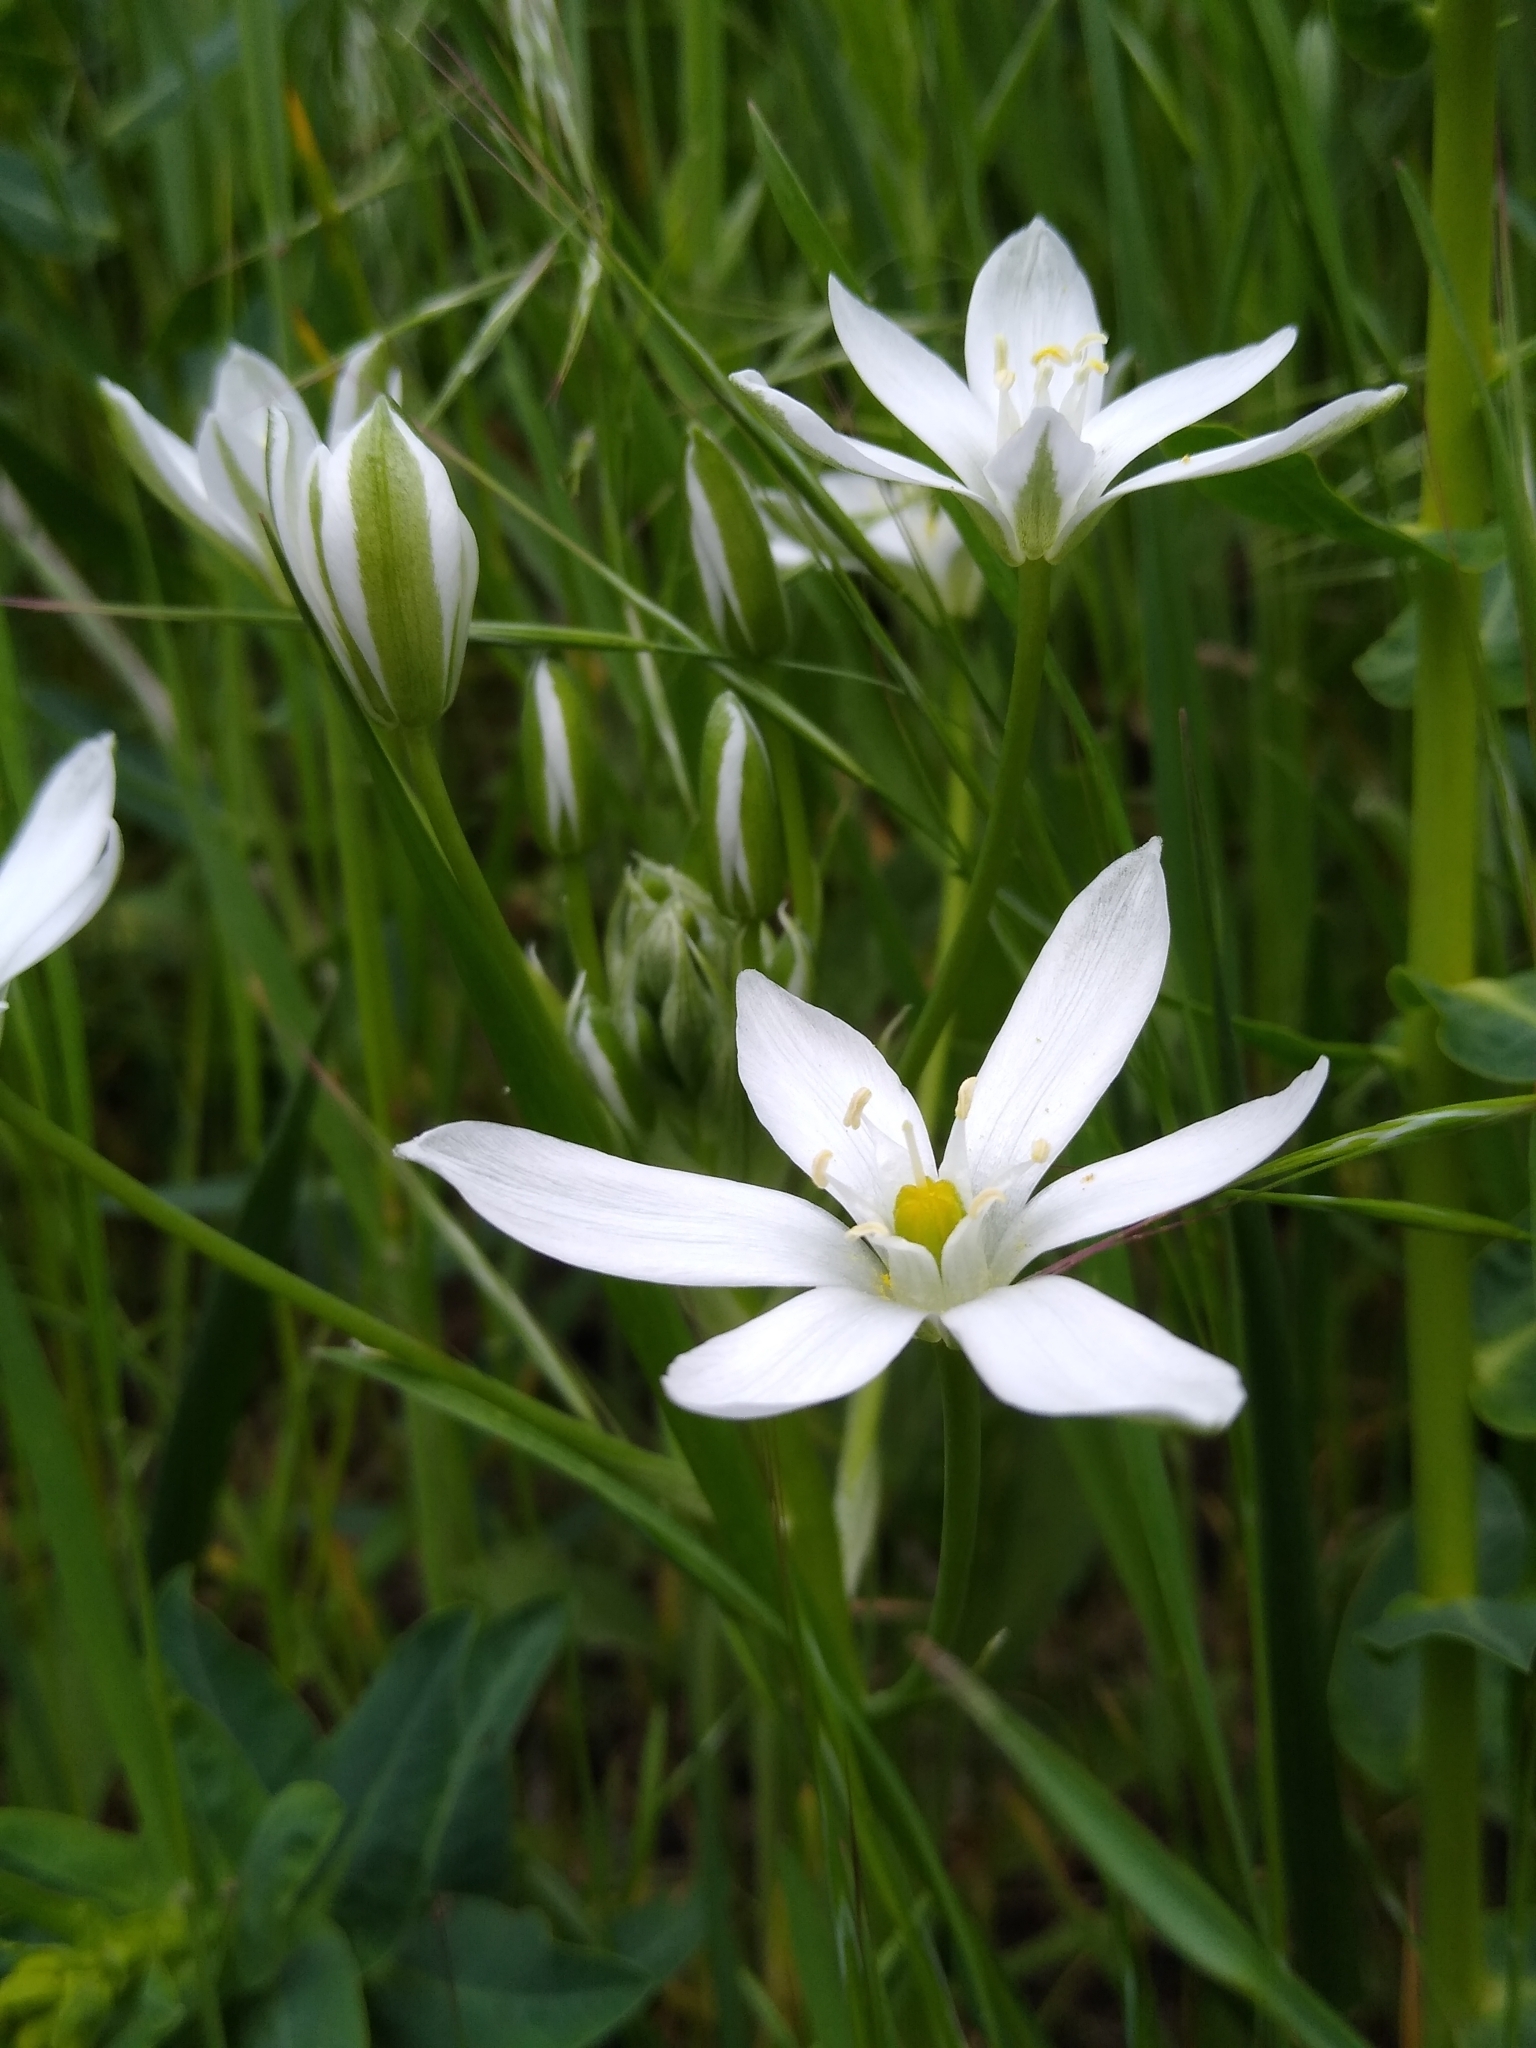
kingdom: Plantae
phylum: Tracheophyta
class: Liliopsida
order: Asparagales
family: Asparagaceae
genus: Ornithogalum
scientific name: Ornithogalum umbellatum
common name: Garden star-of-bethlehem
